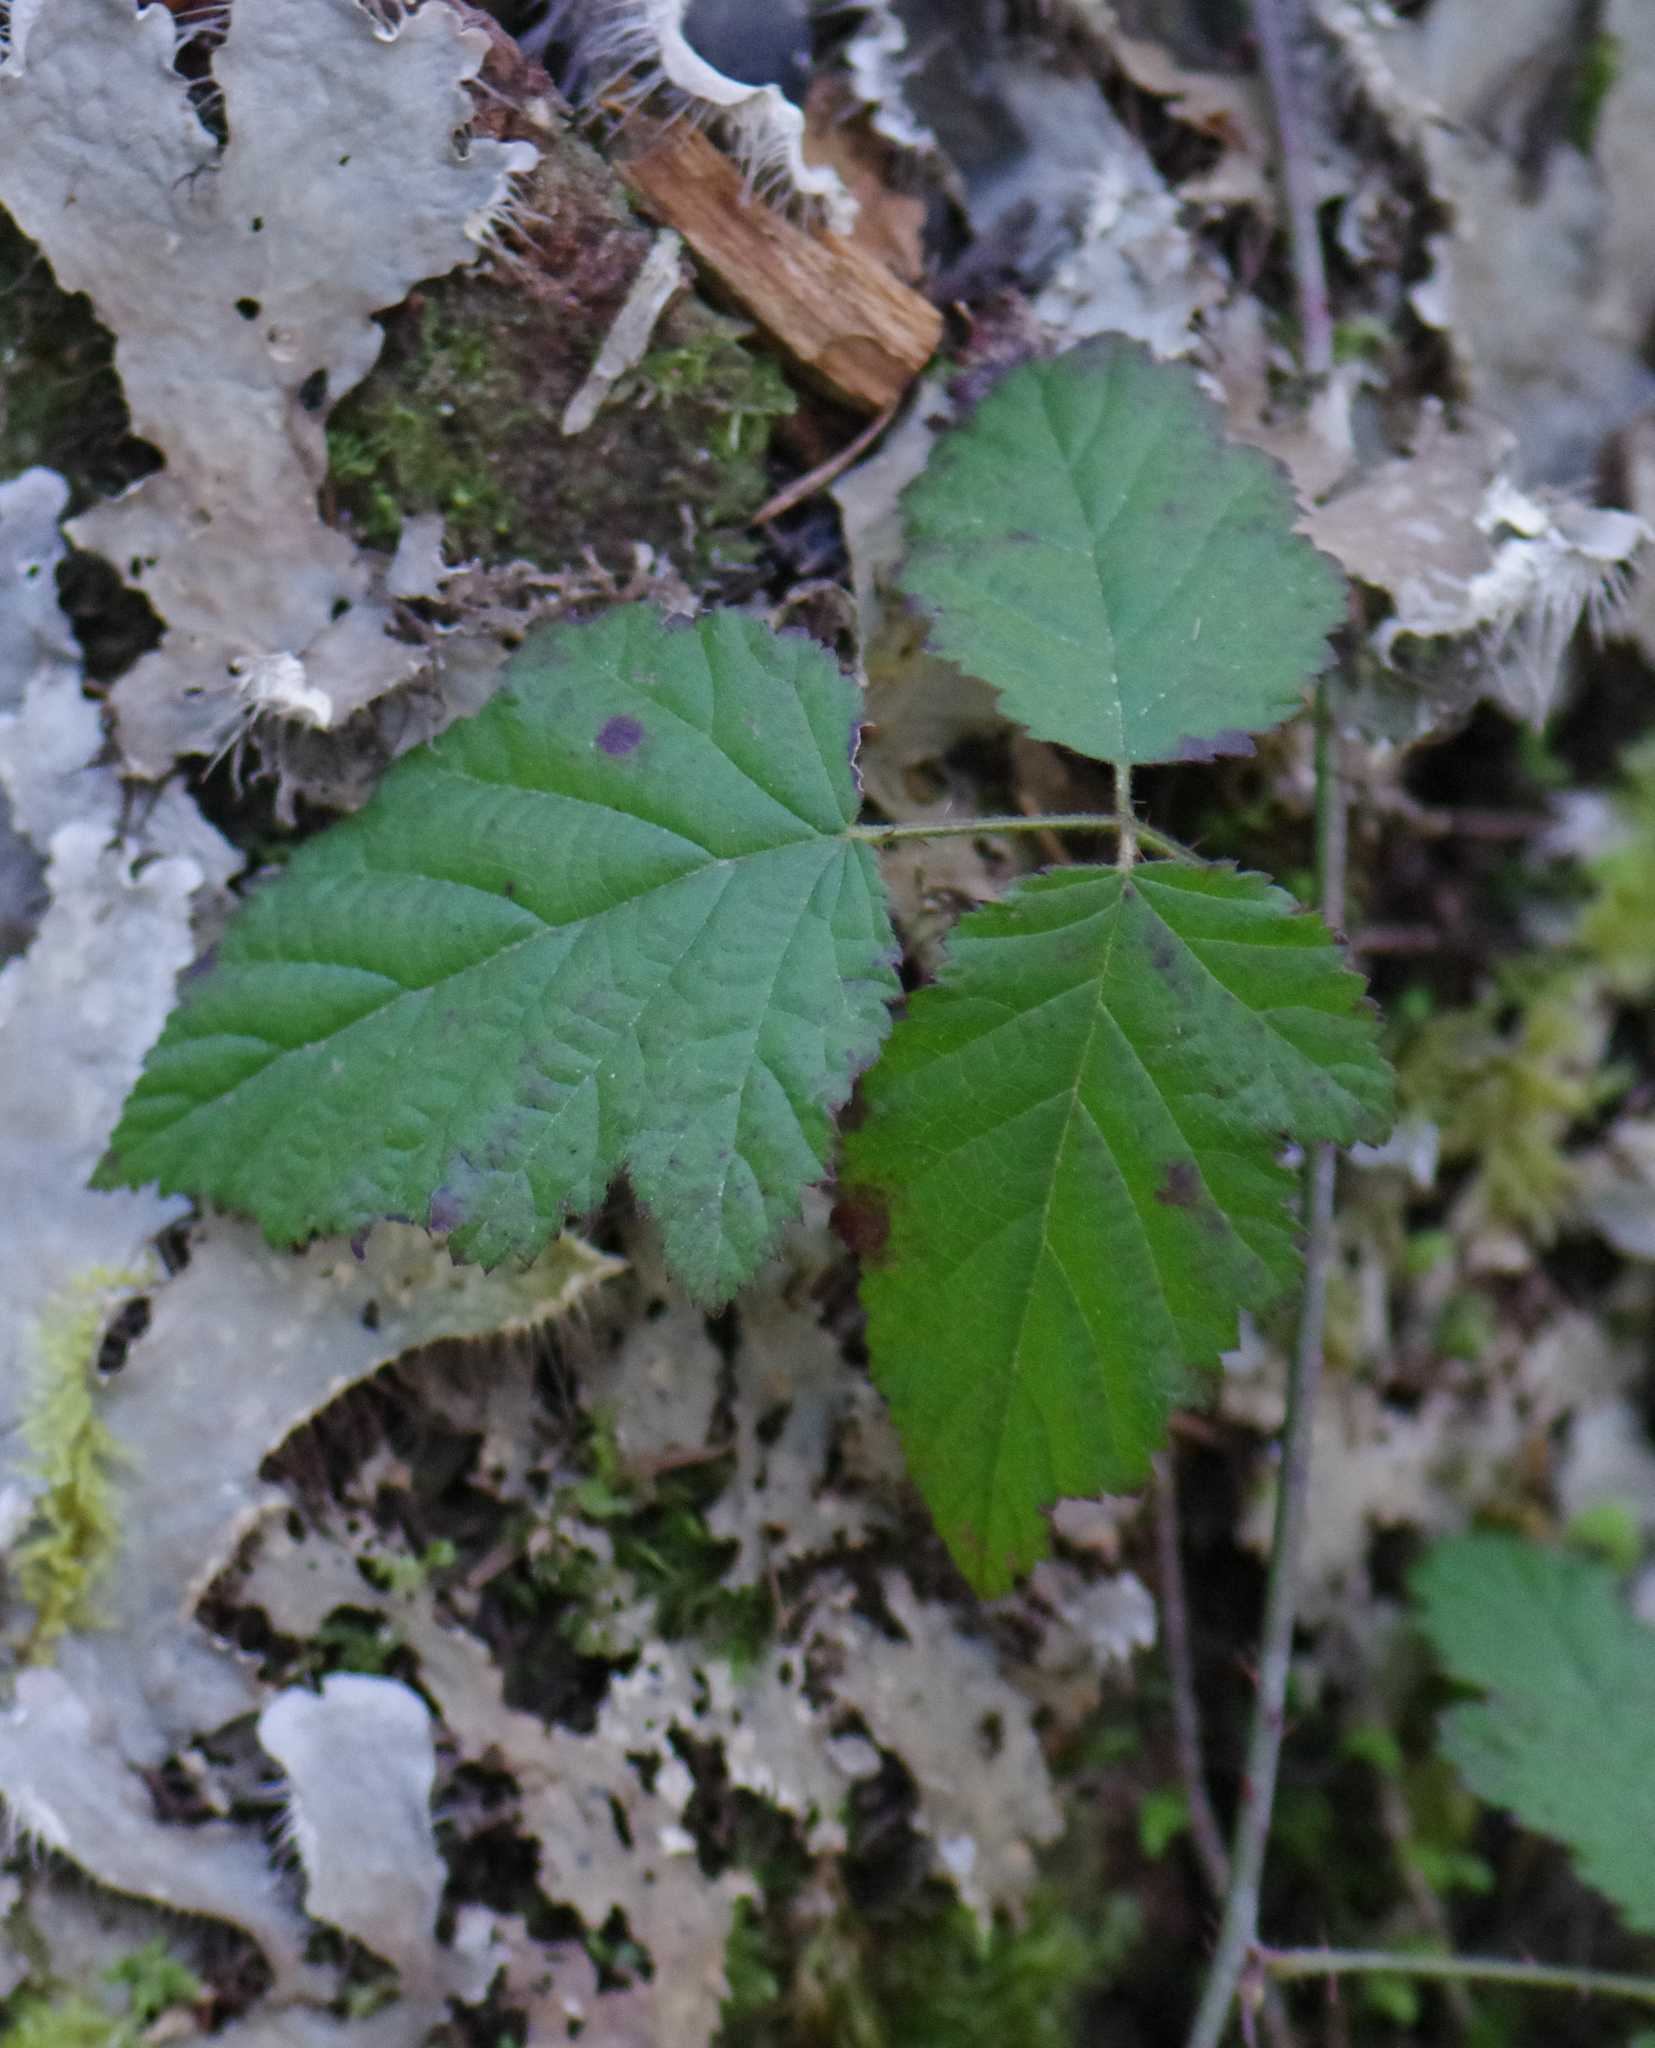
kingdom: Plantae
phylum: Tracheophyta
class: Magnoliopsida
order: Rosales
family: Rosaceae
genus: Rubus
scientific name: Rubus ursinus
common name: Pacific blackberry
